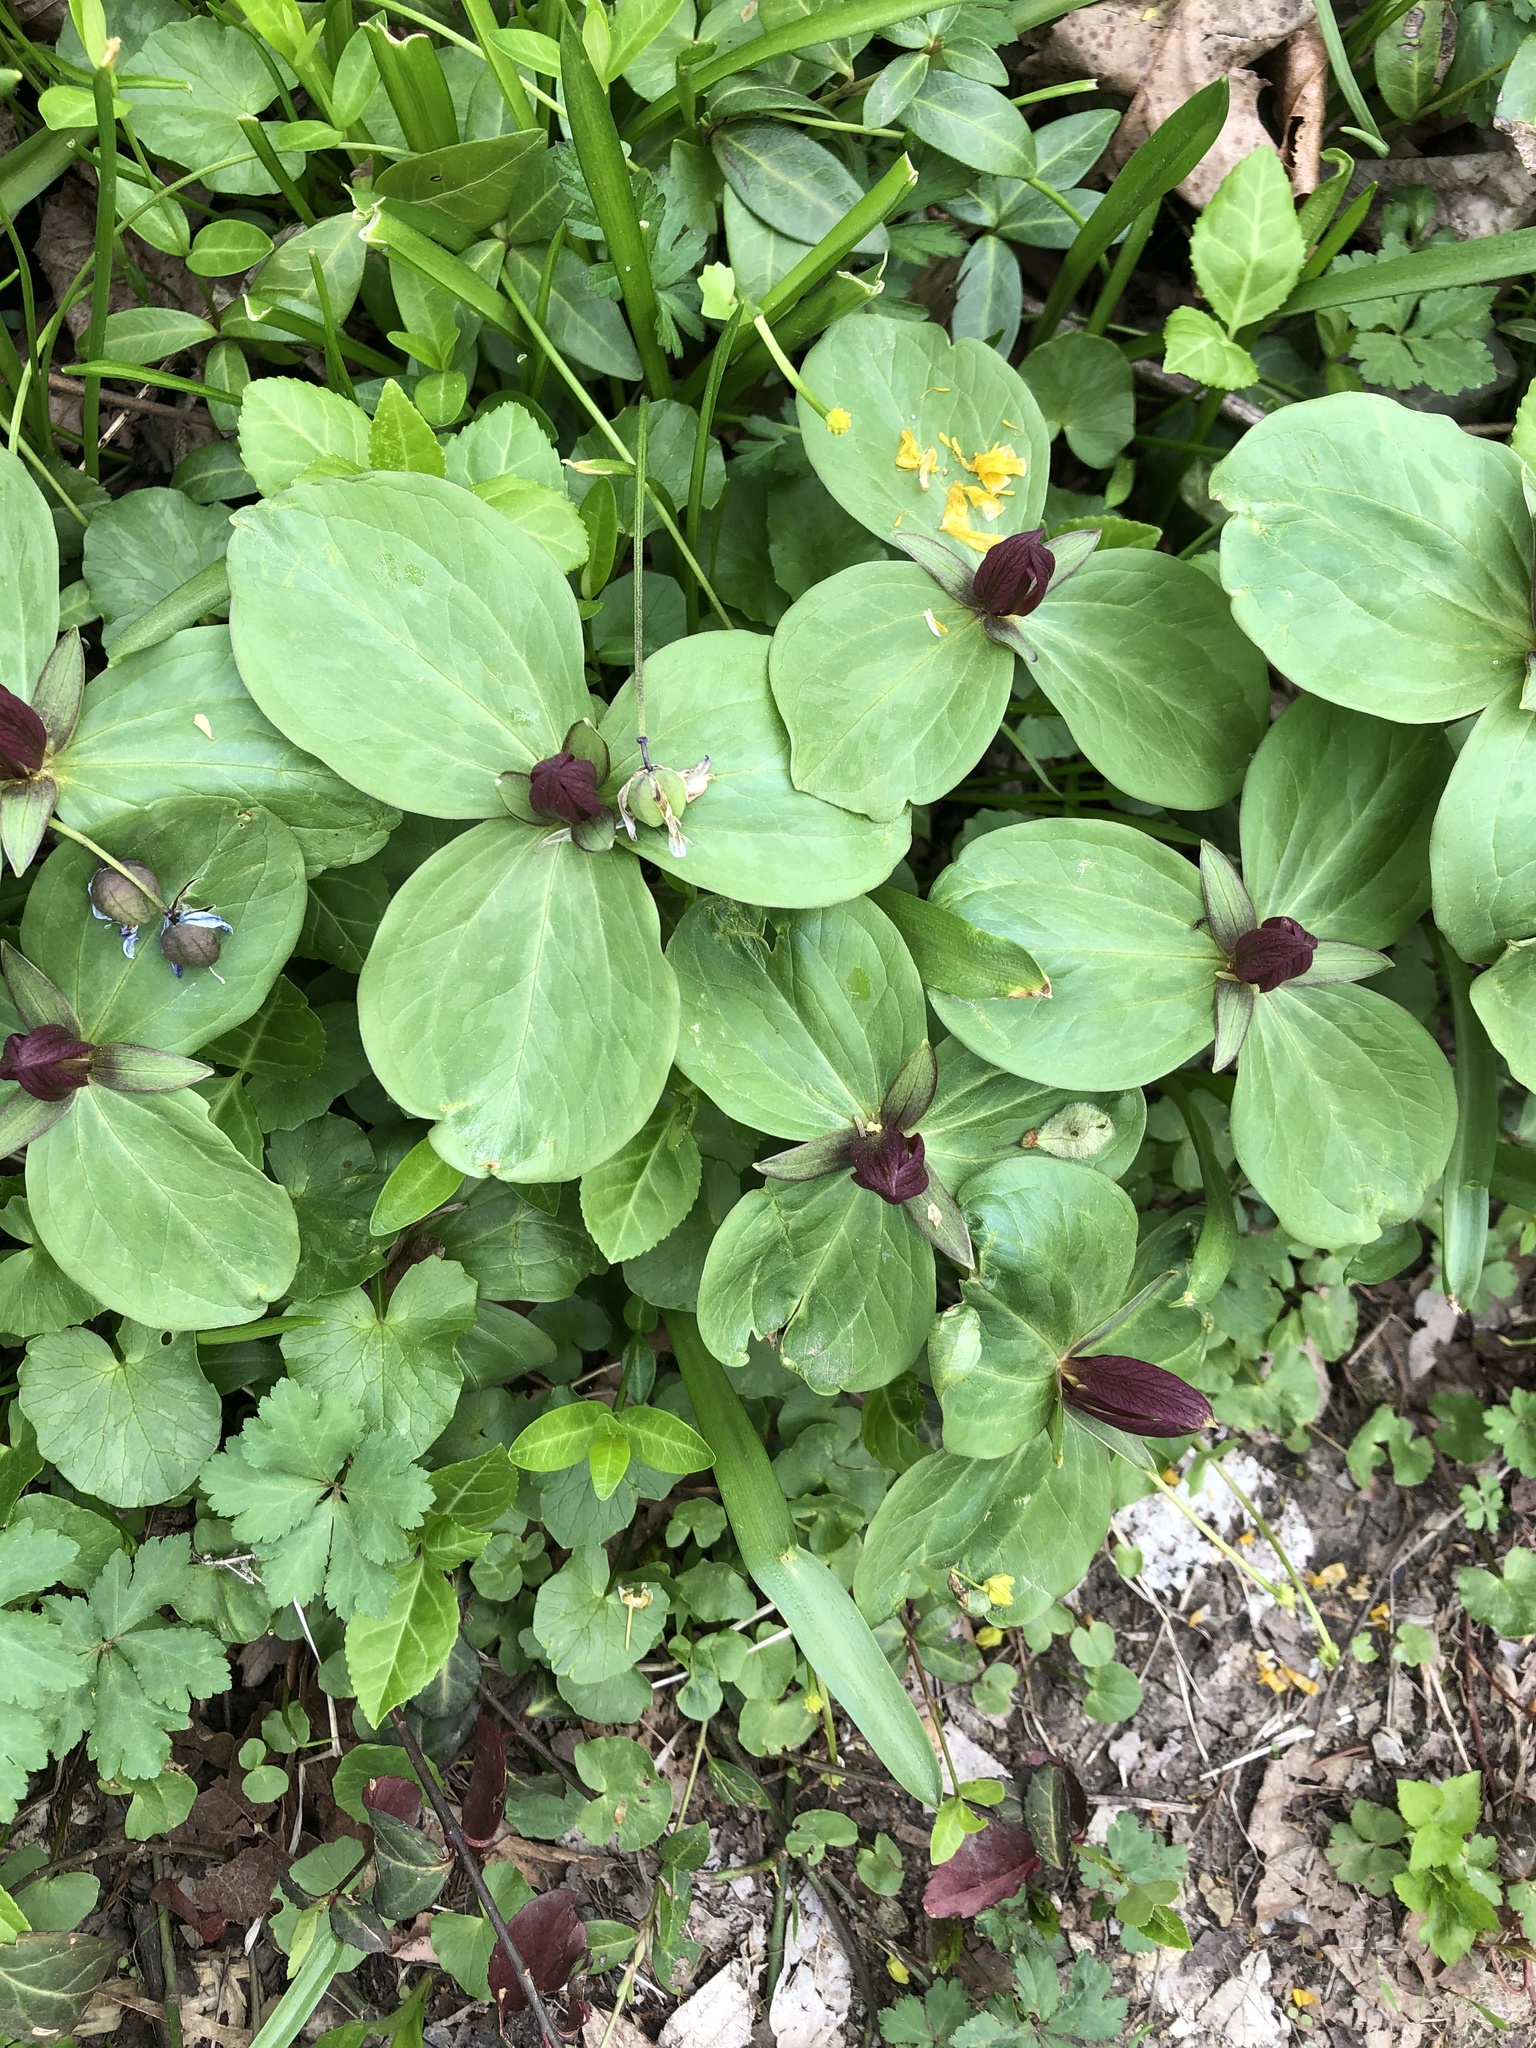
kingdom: Plantae
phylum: Tracheophyta
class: Liliopsida
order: Liliales
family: Melanthiaceae
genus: Trillium
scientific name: Trillium sessile
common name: Sessile trillium
